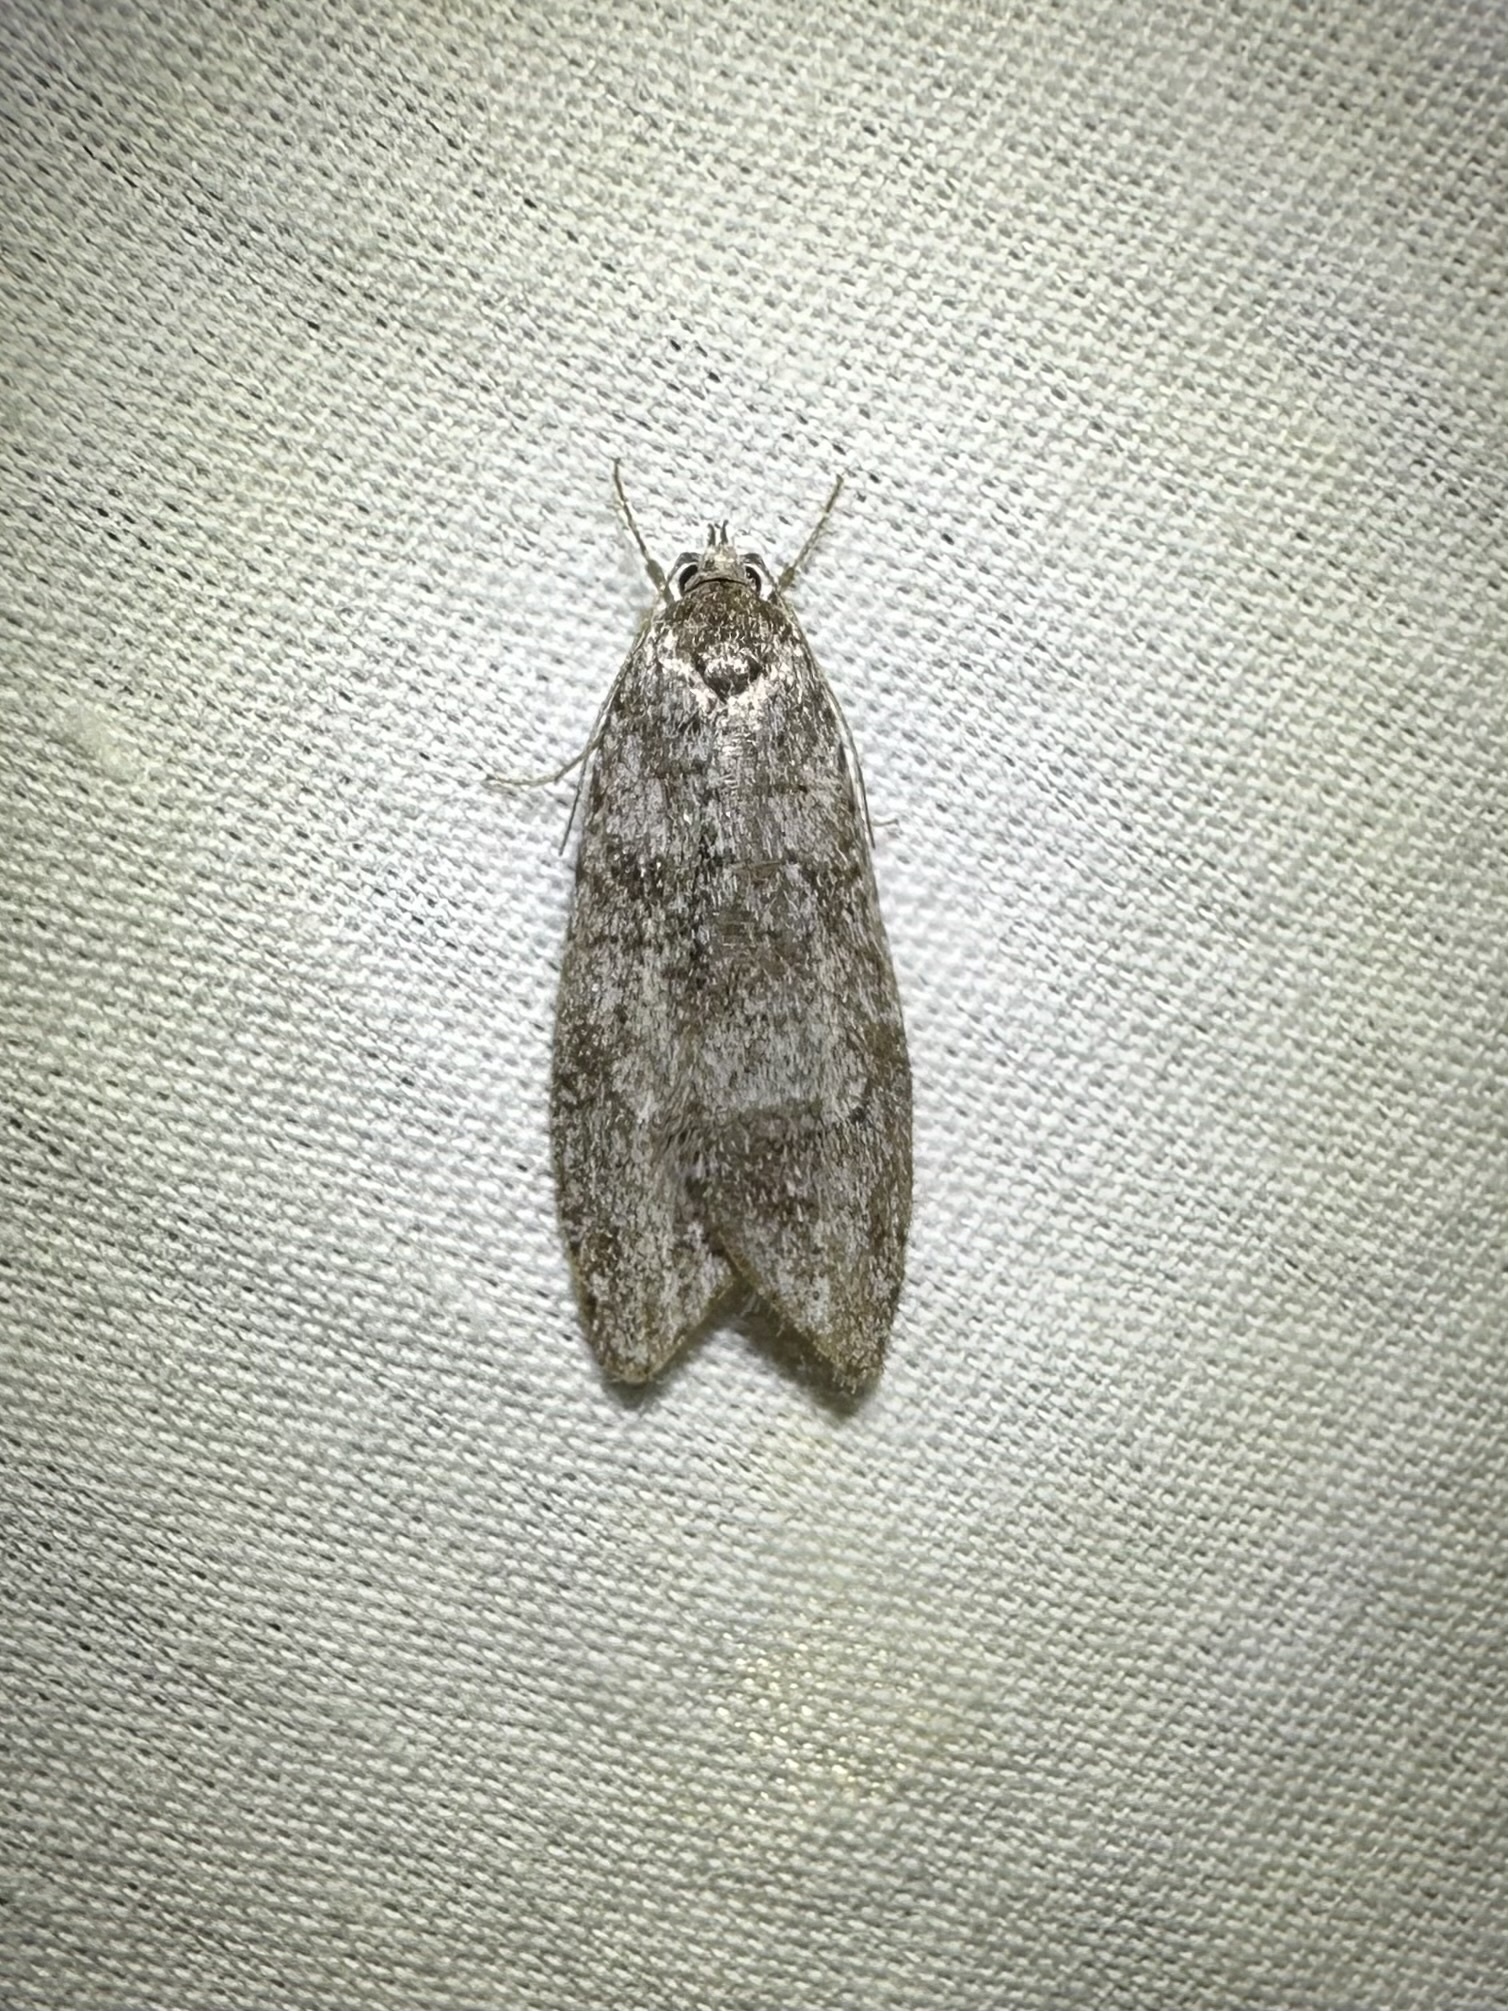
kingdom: Animalia
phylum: Arthropoda
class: Insecta
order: Lepidoptera
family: Depressariidae
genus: Semioscopis
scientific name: Semioscopis inornata
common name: Poplar micromoth
